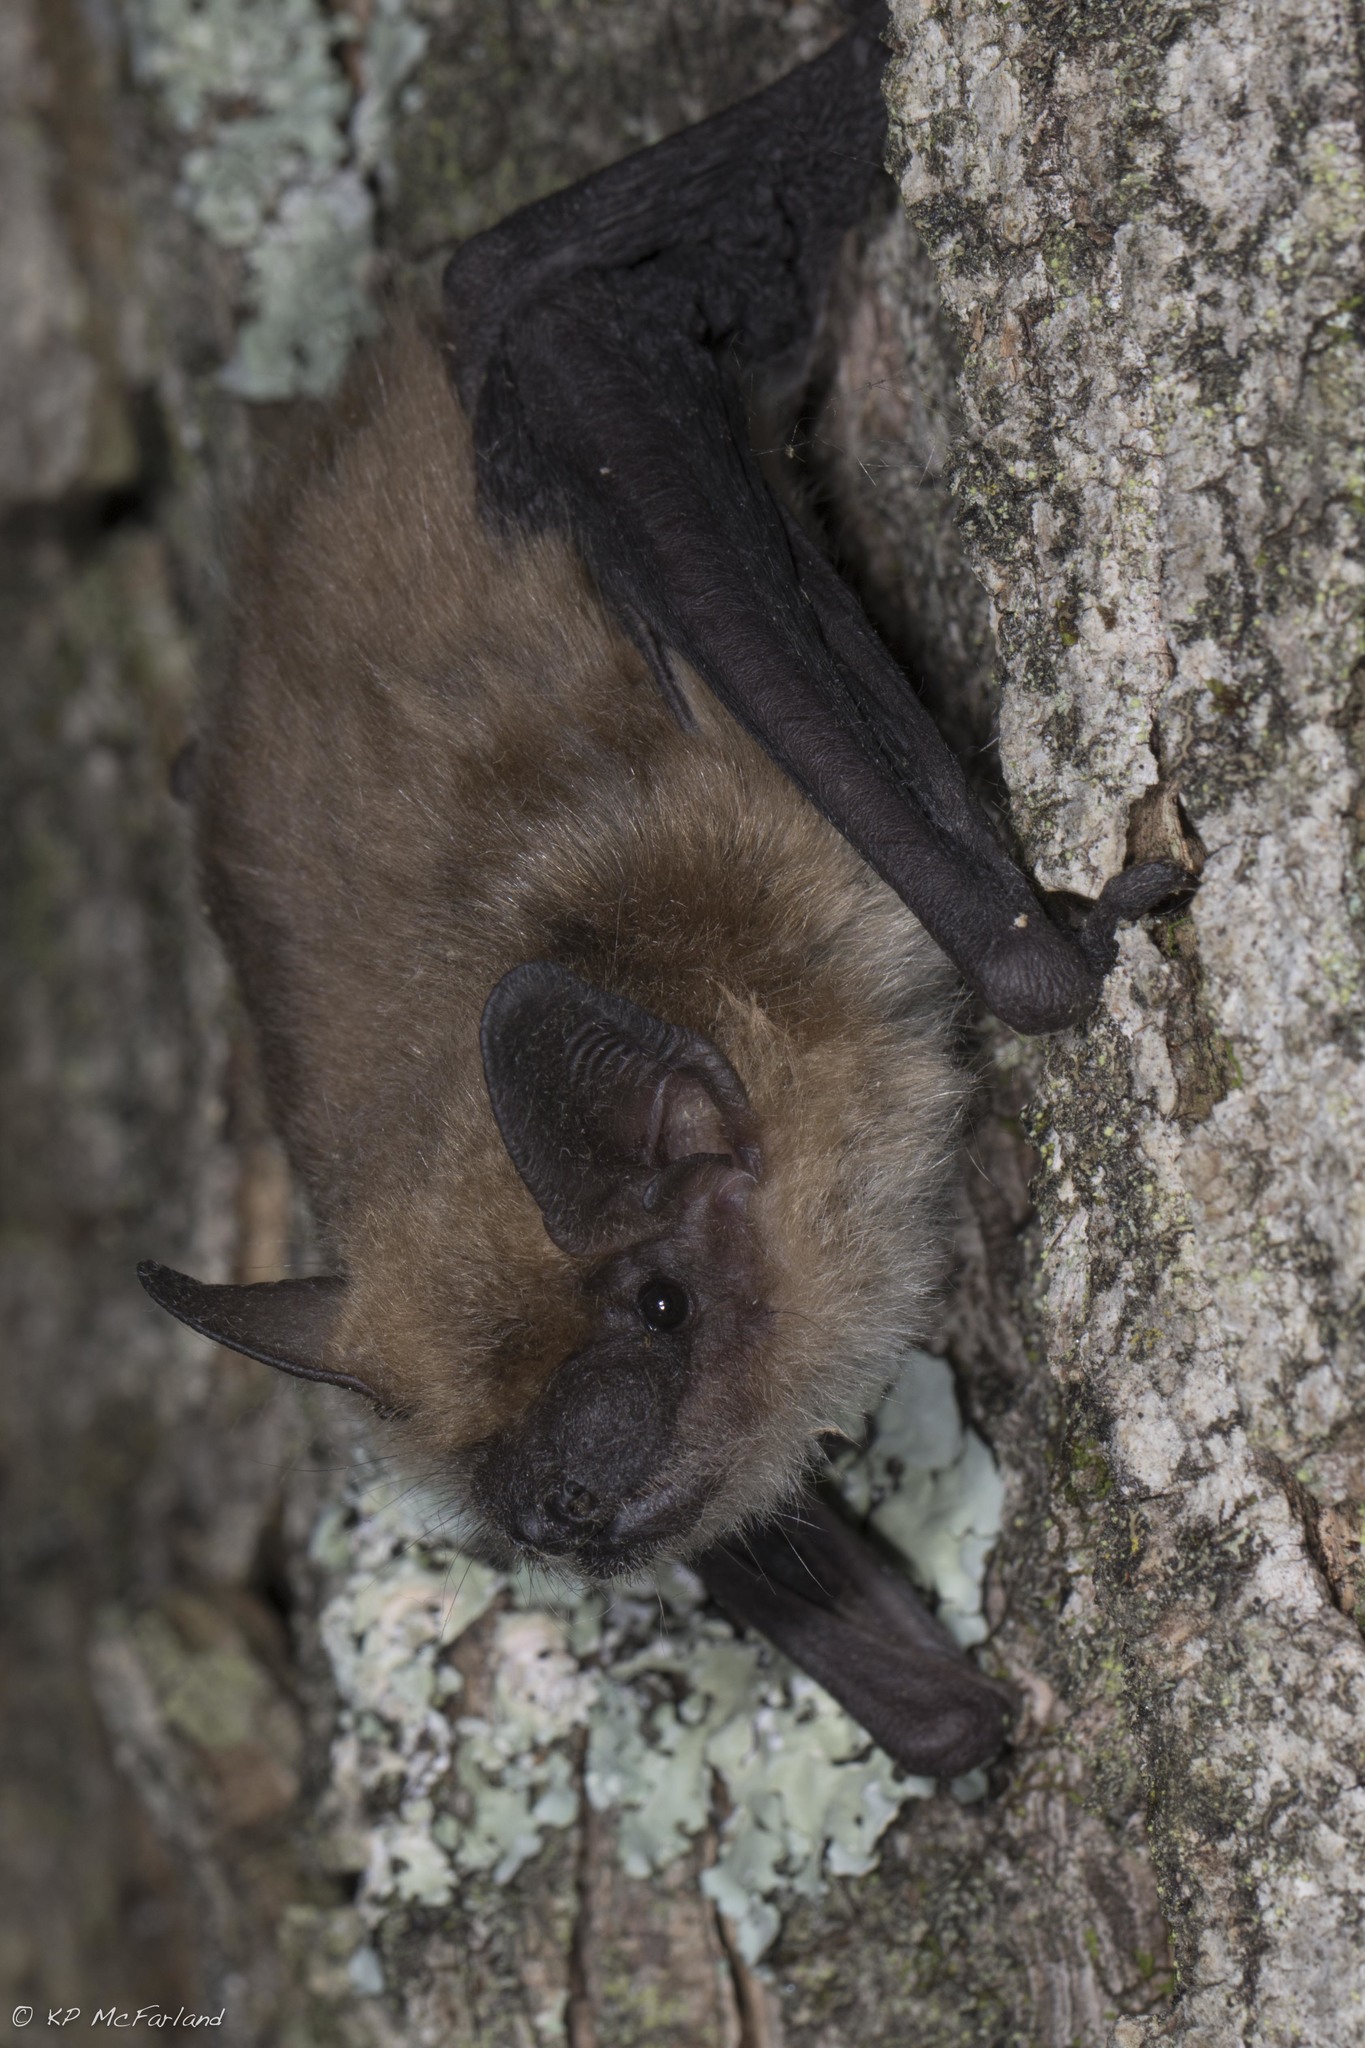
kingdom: Animalia
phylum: Chordata
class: Mammalia
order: Chiroptera
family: Vespertilionidae
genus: Eptesicus
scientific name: Eptesicus fuscus
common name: Big brown bat
